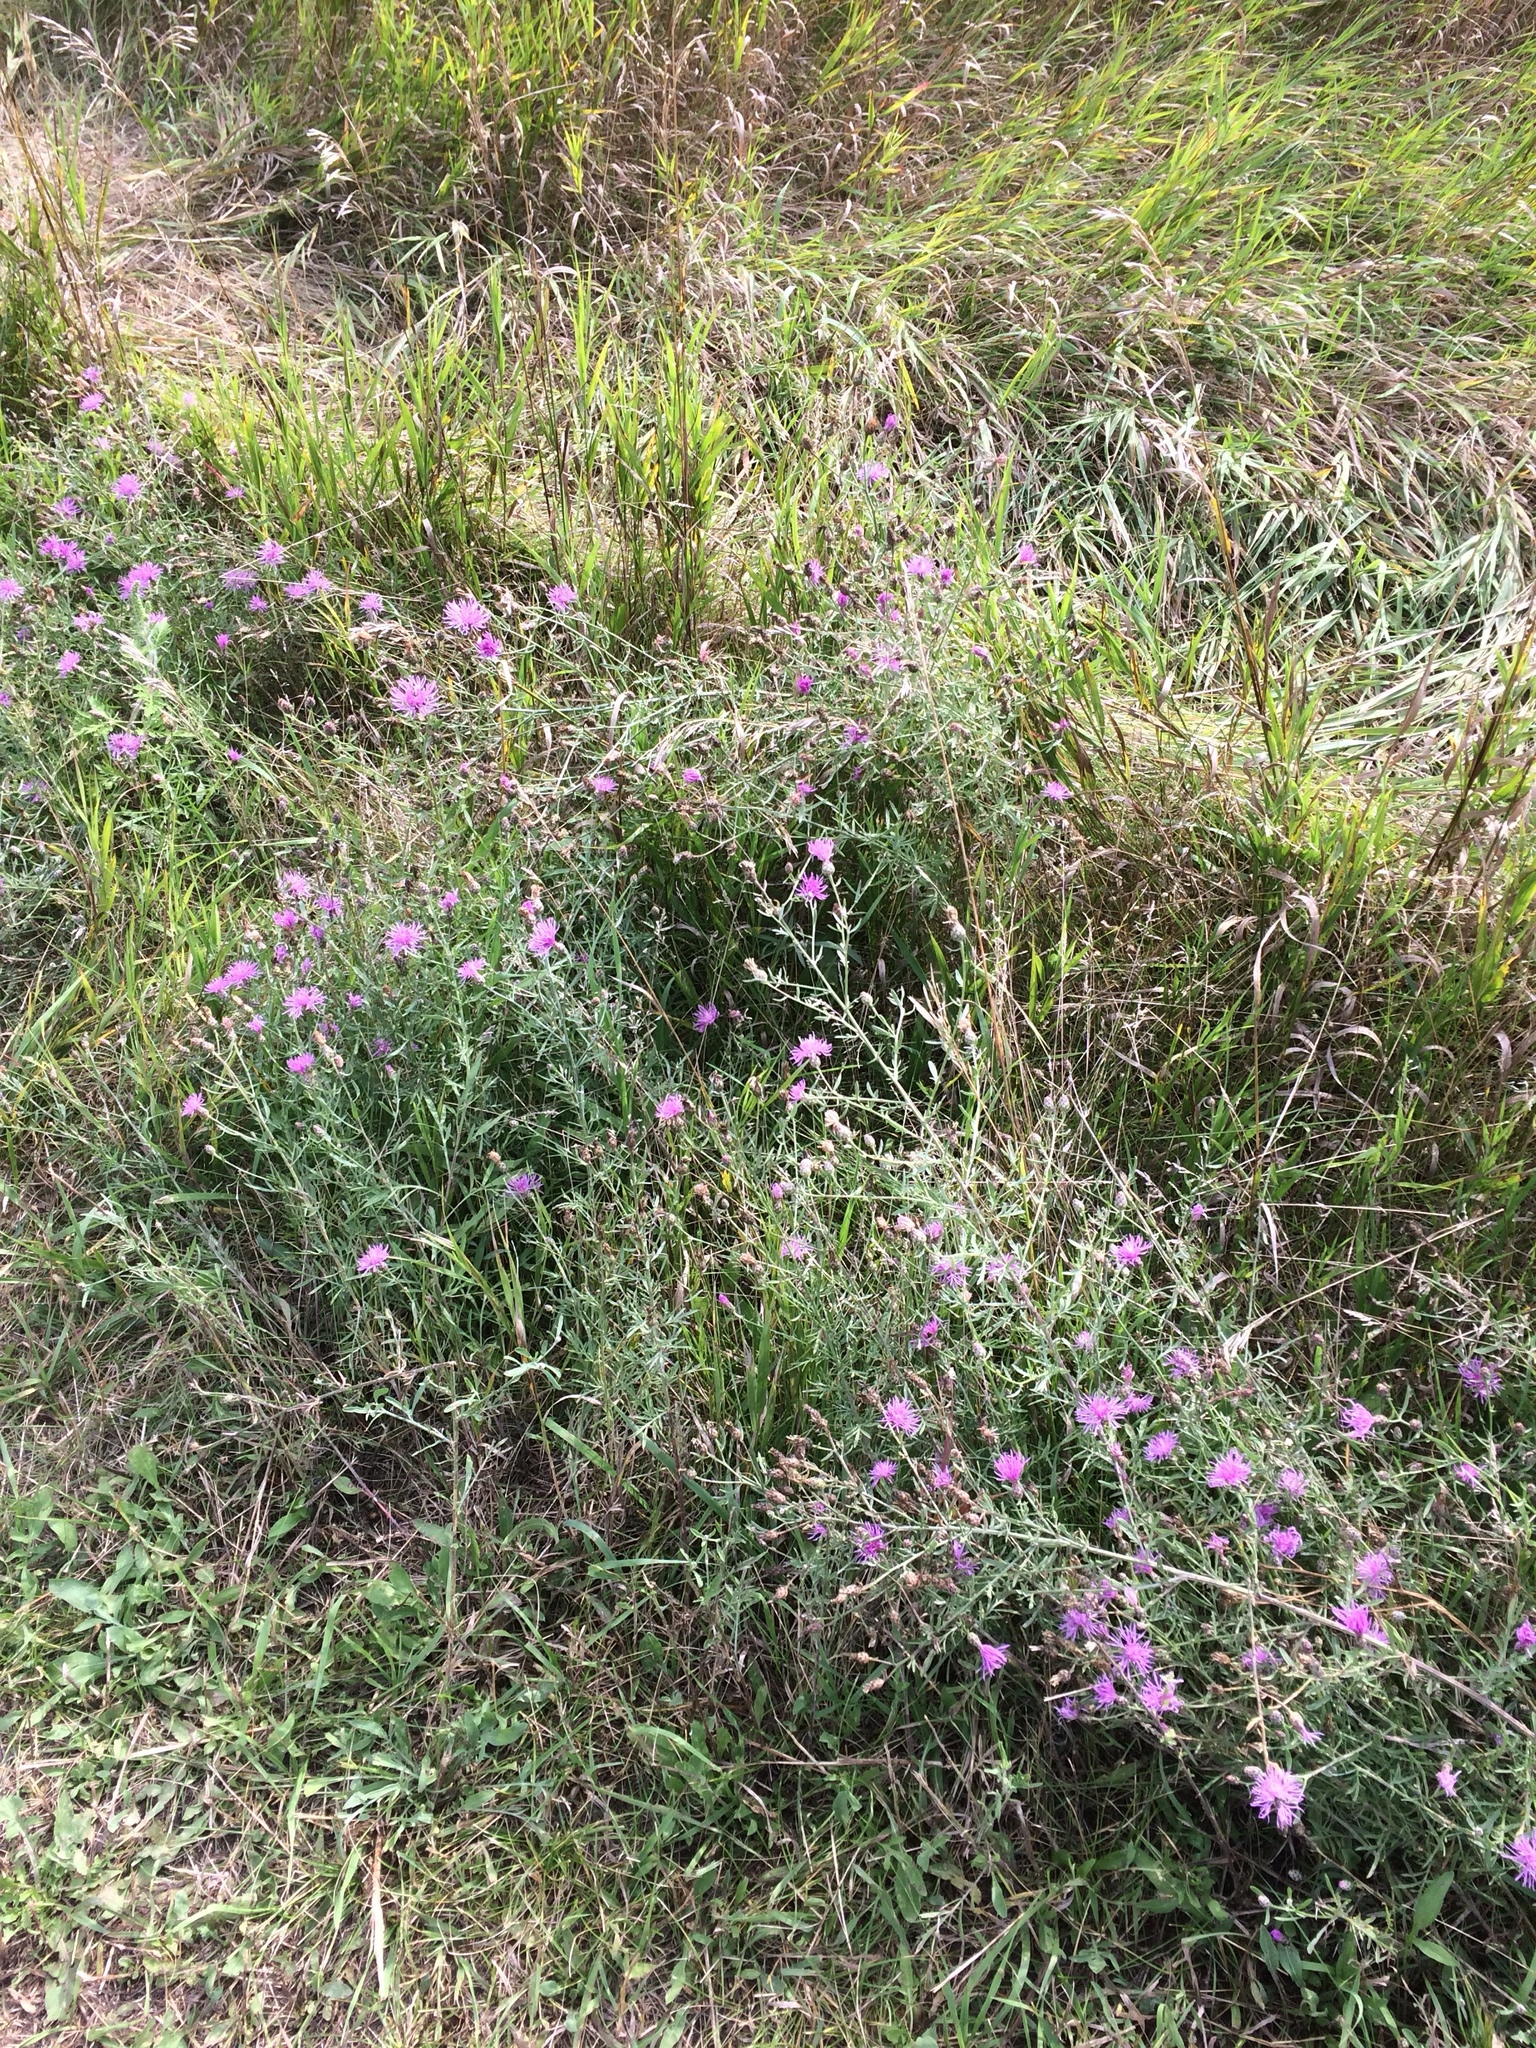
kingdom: Plantae
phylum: Tracheophyta
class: Magnoliopsida
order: Asterales
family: Asteraceae
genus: Centaurea
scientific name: Centaurea stoebe
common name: Spotted knapweed
